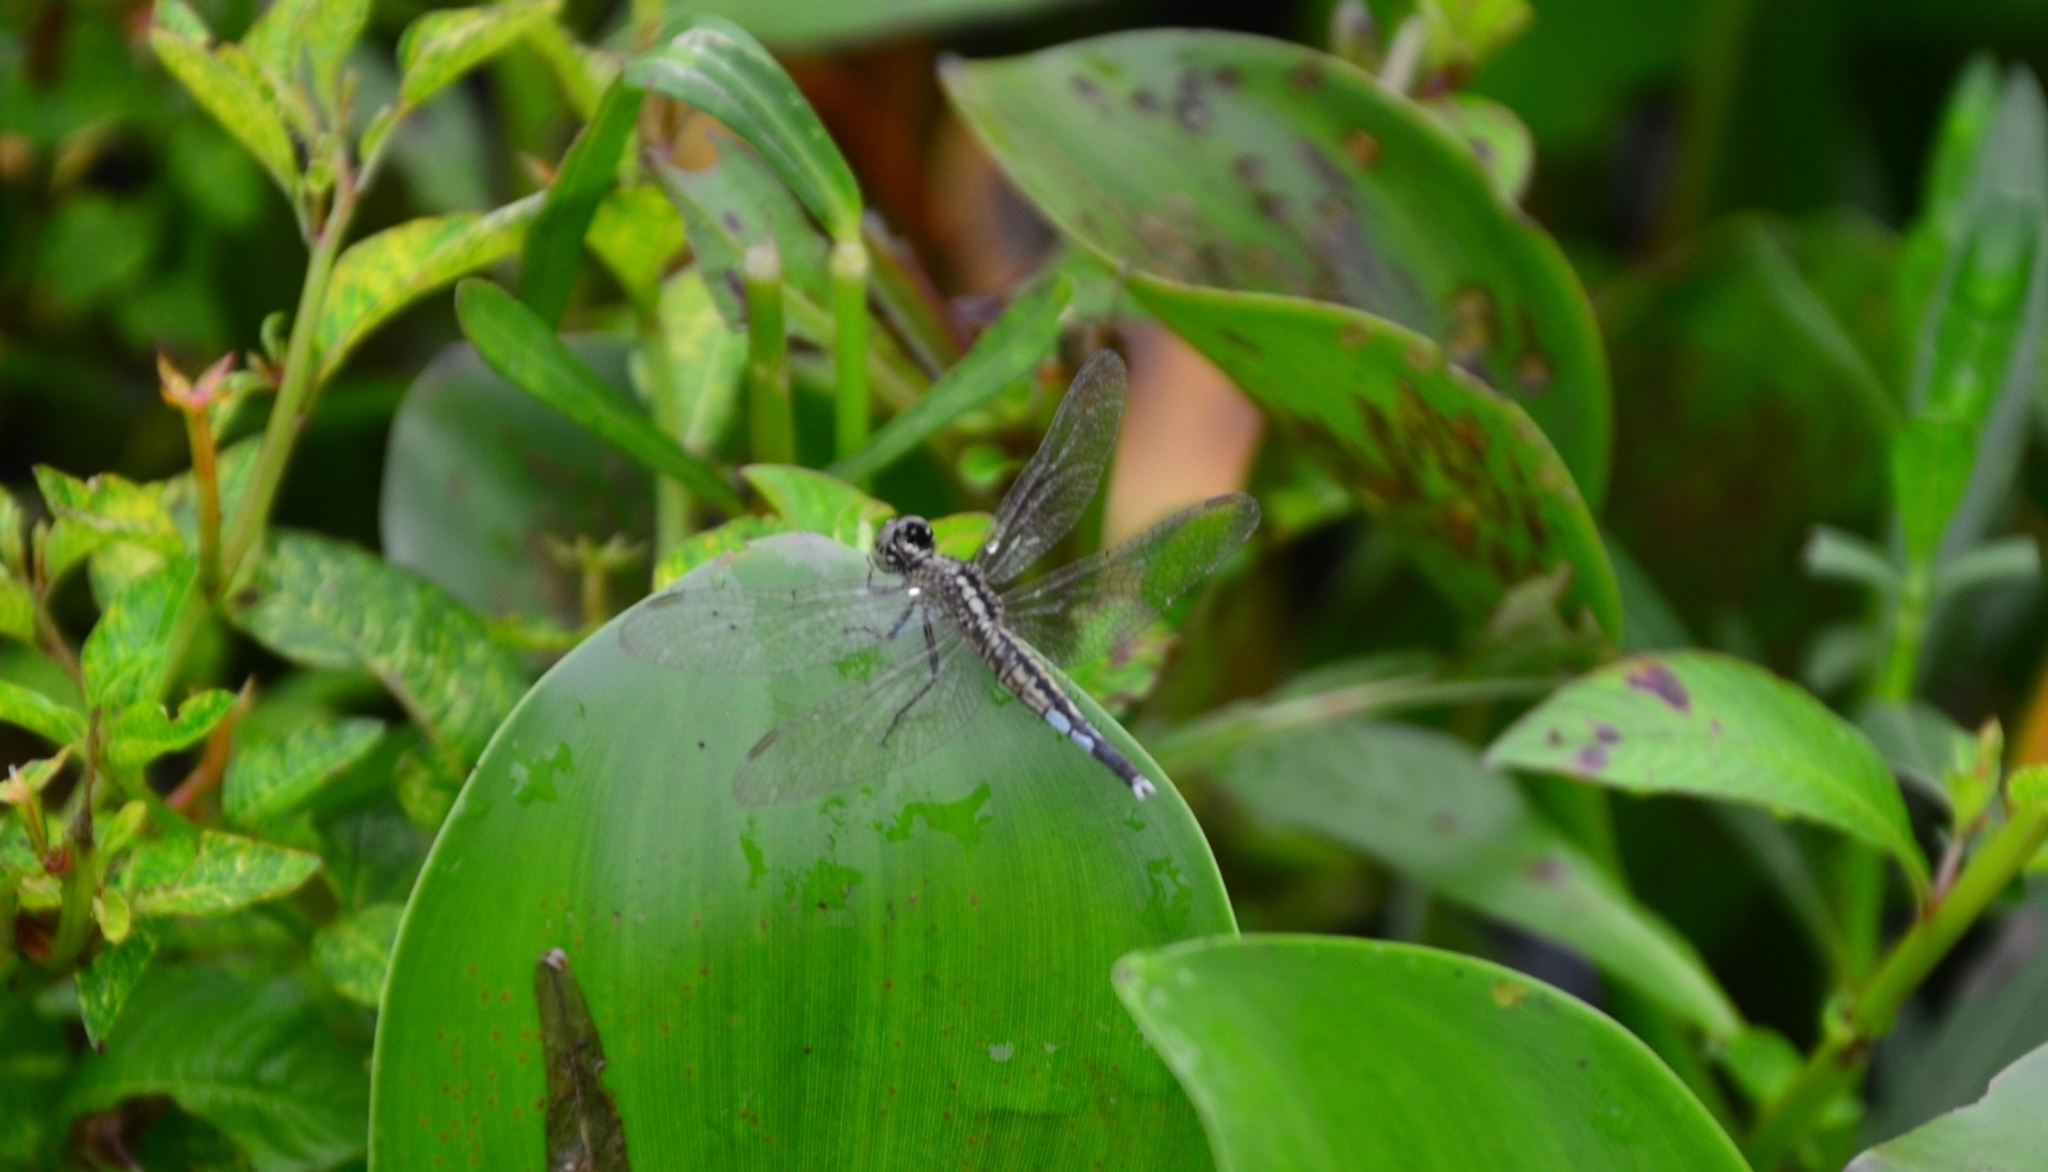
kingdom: Animalia
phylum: Arthropoda
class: Insecta
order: Odonata
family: Libellulidae
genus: Acisoma
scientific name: Acisoma panorpoides
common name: Asian pintail
